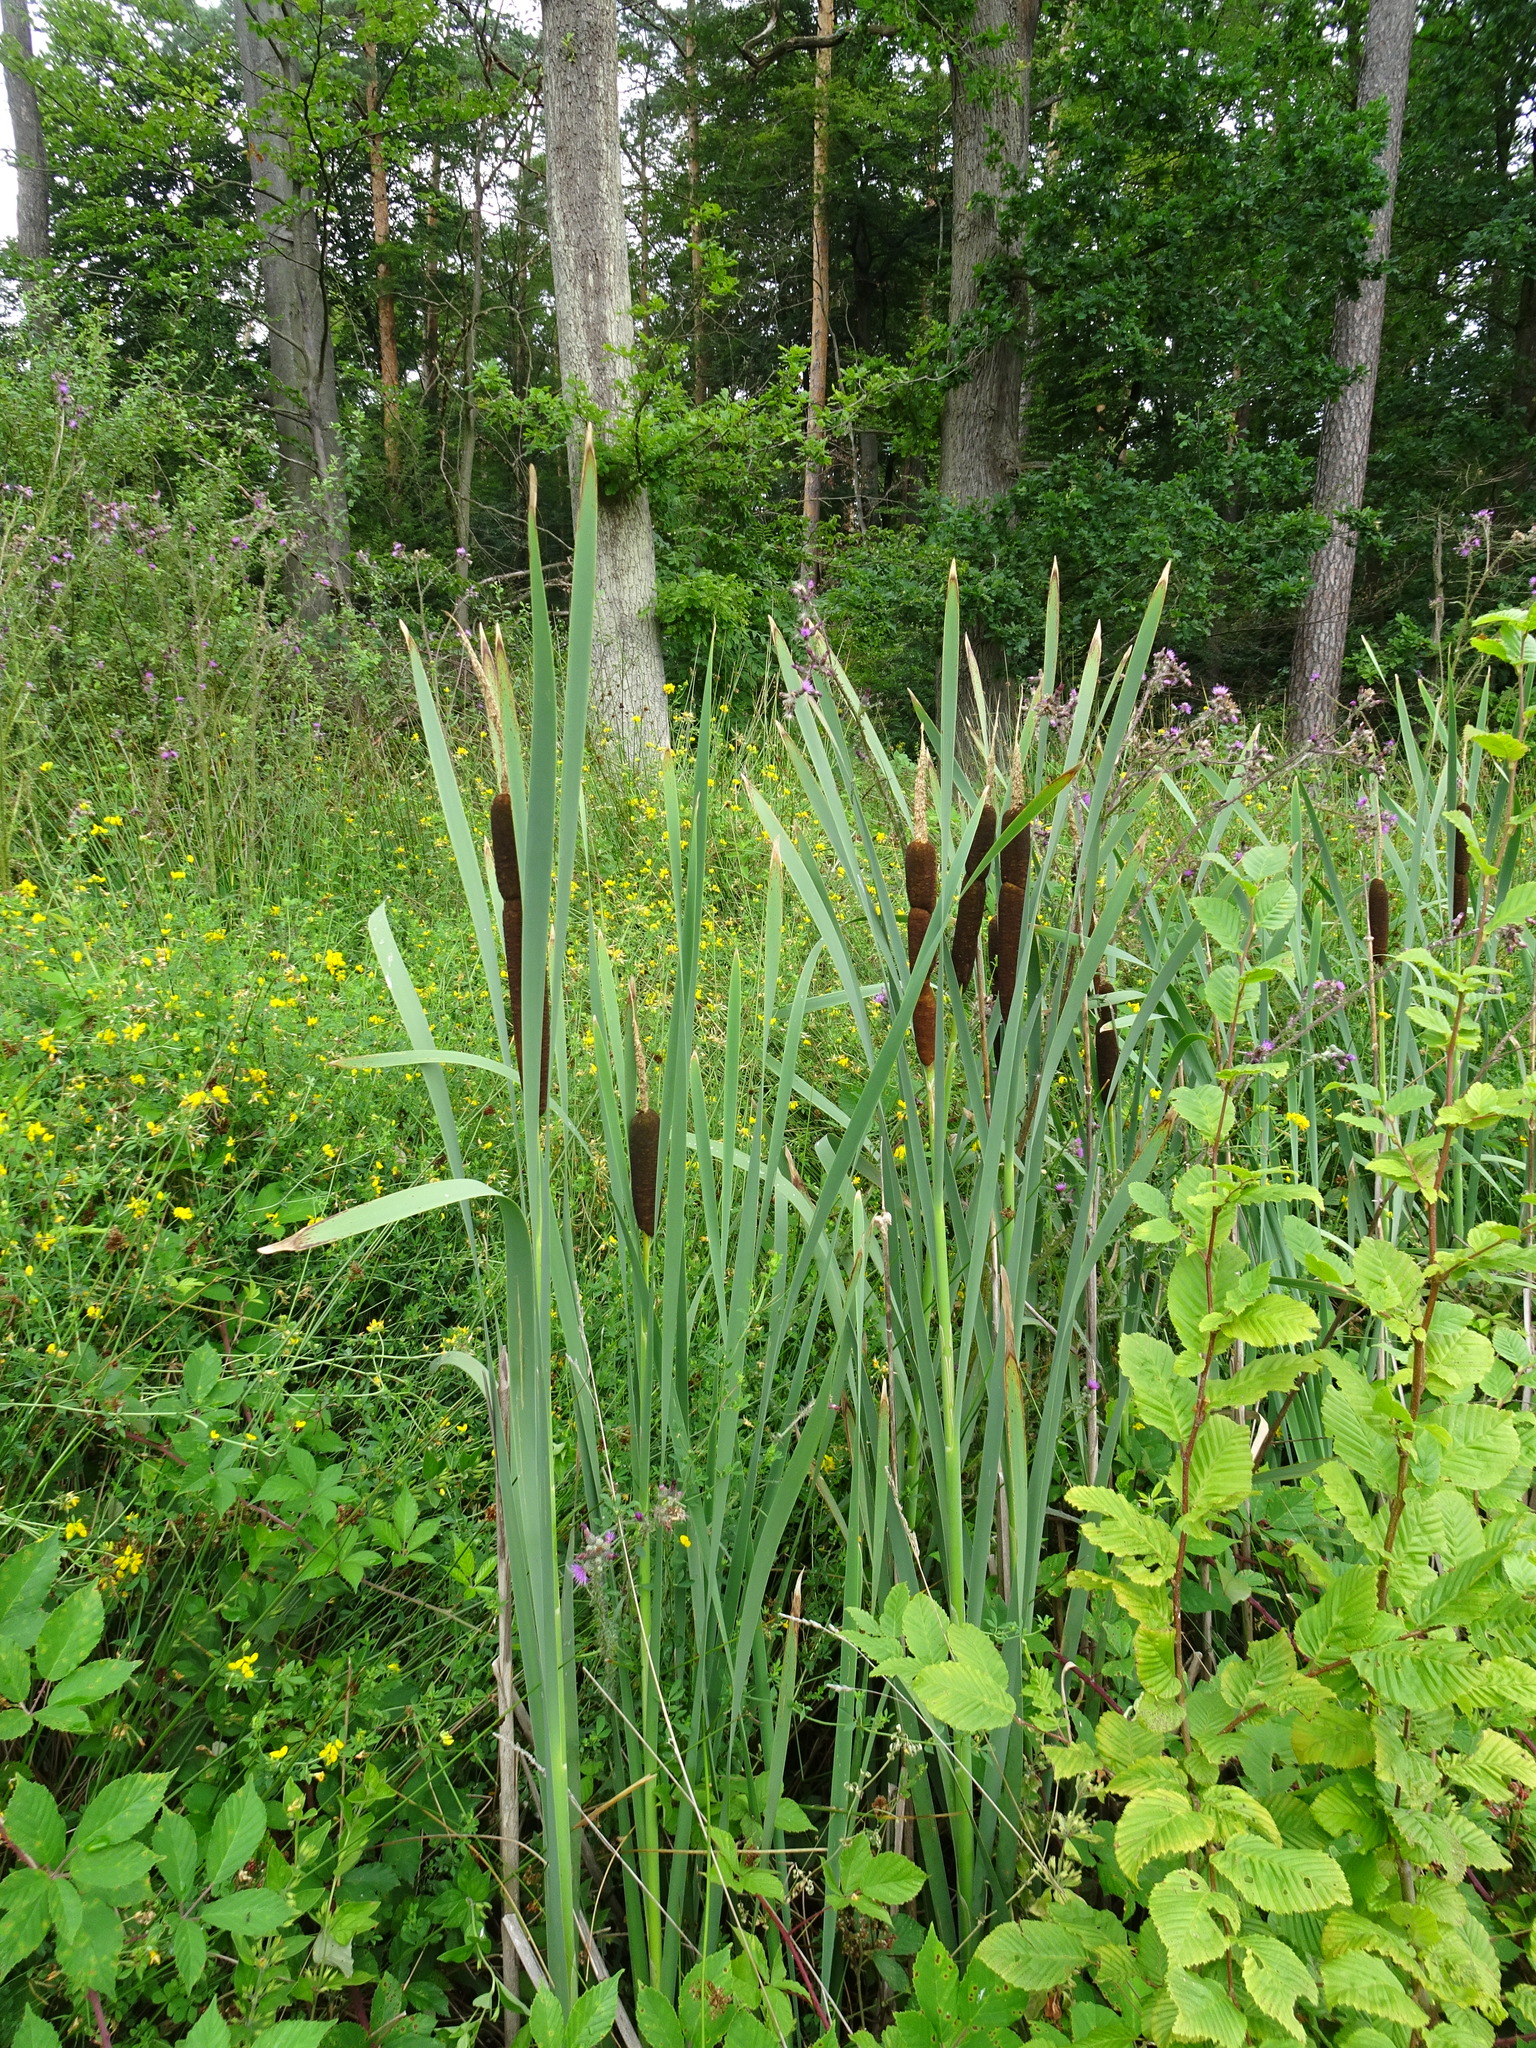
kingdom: Plantae
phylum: Tracheophyta
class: Liliopsida
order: Poales
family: Typhaceae
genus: Typha
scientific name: Typha latifolia
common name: Broadleaf cattail
